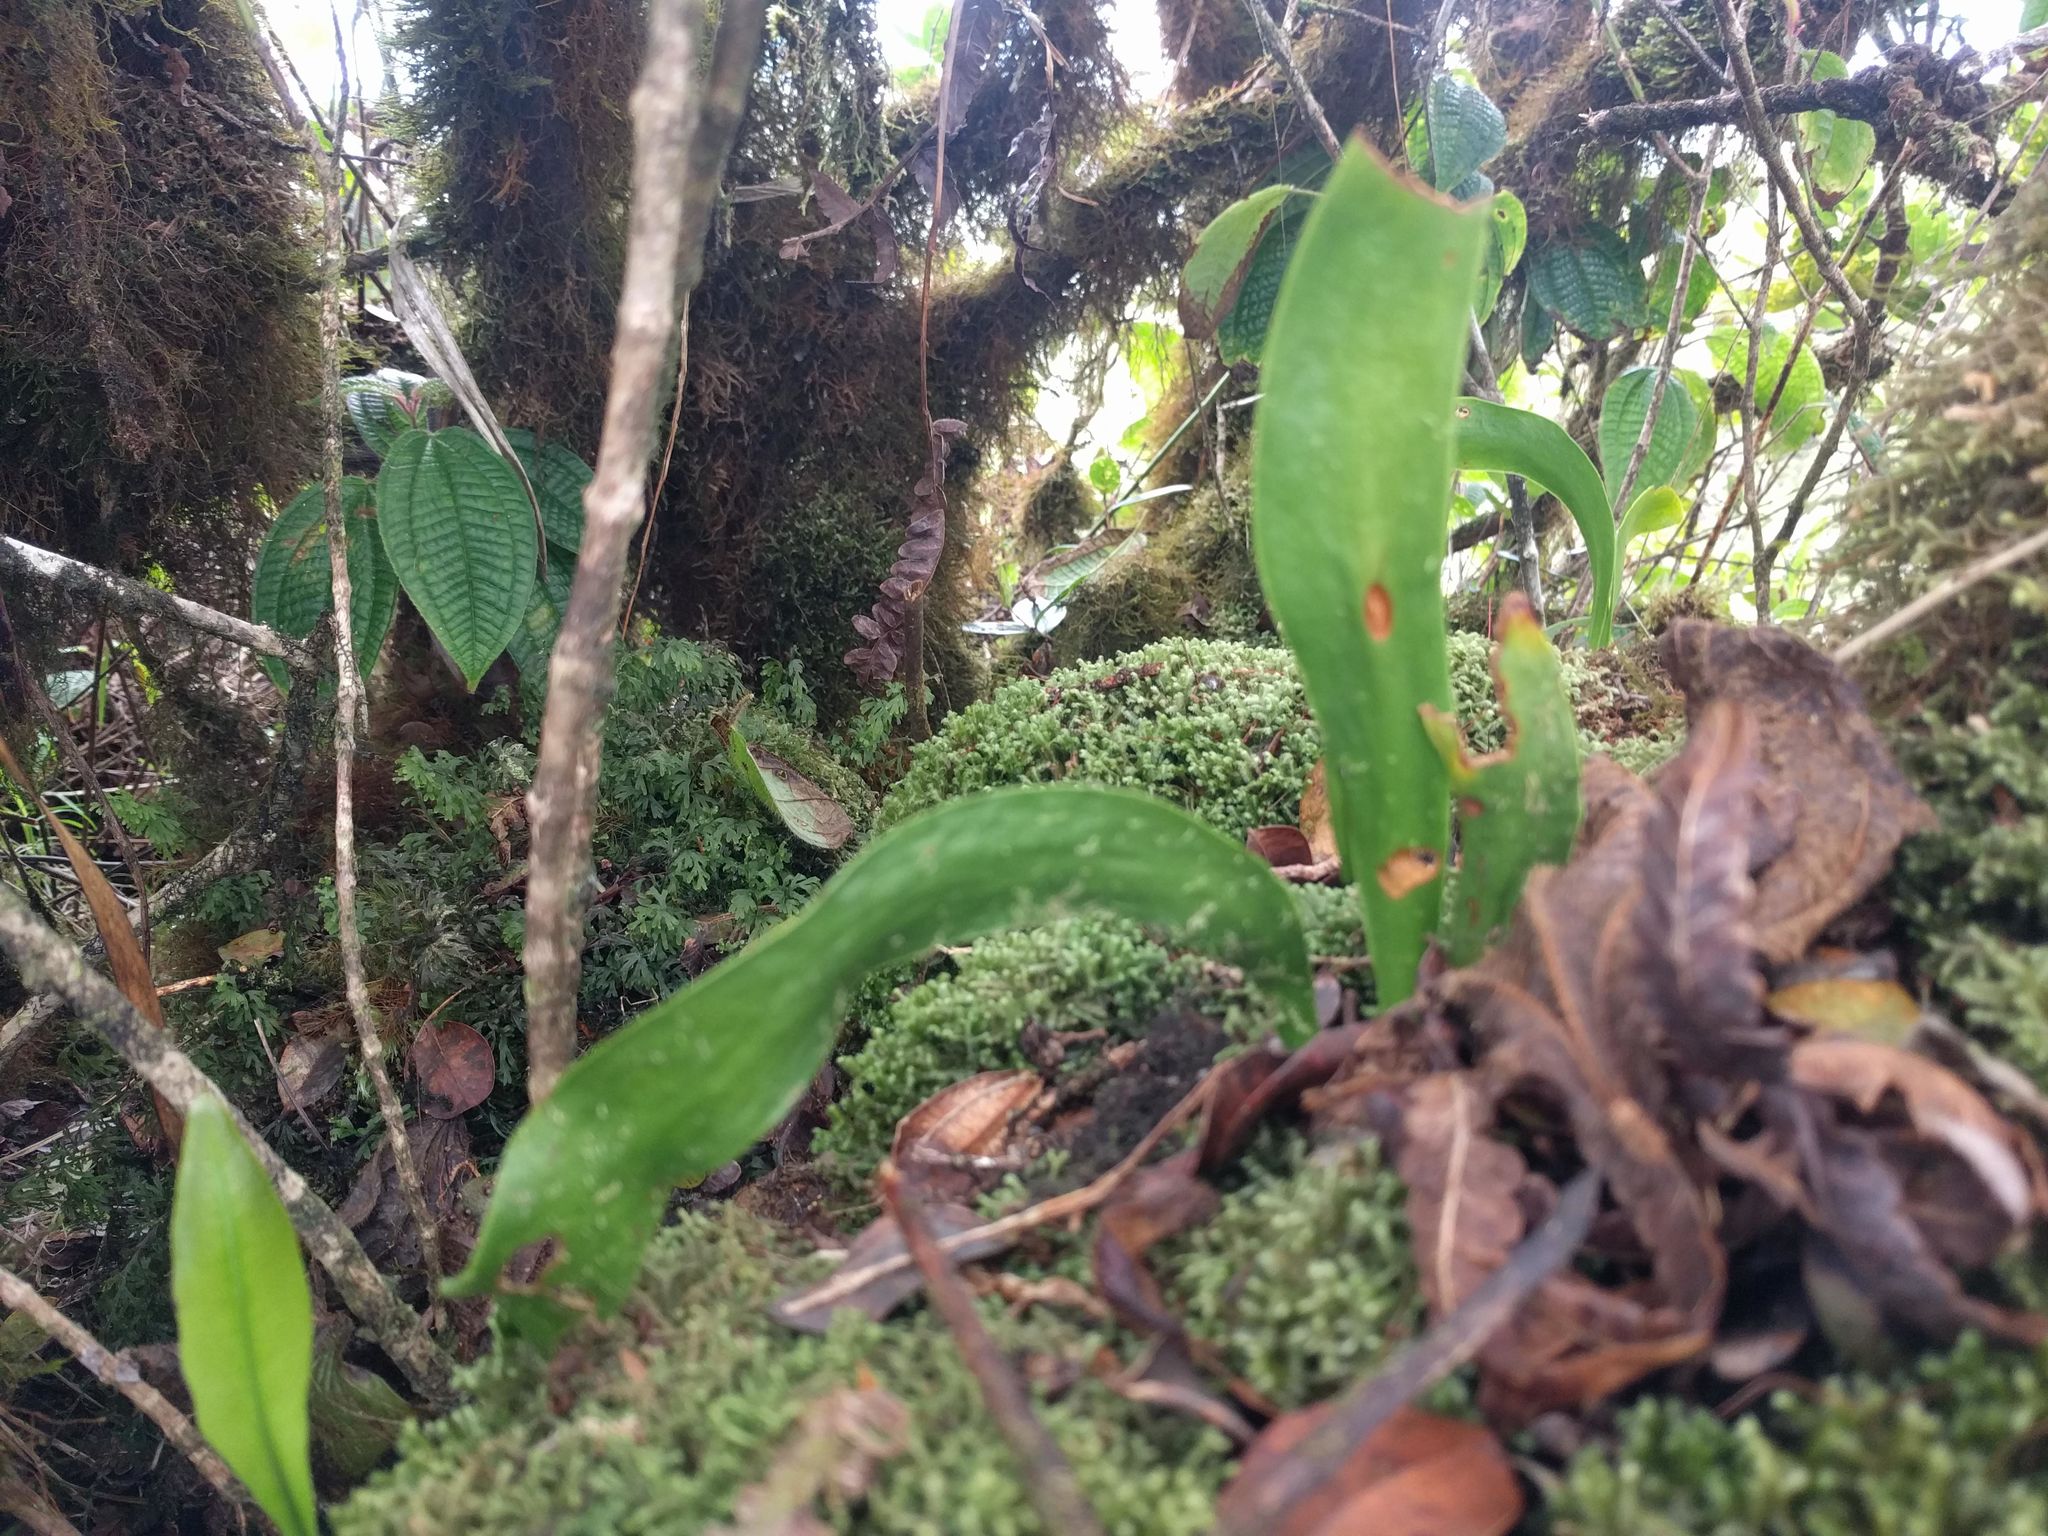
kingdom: Plantae
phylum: Tracheophyta
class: Polypodiopsida
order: Ophioglossales
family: Ophioglossaceae
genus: Ophioderma
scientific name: Ophioderma falcatum
